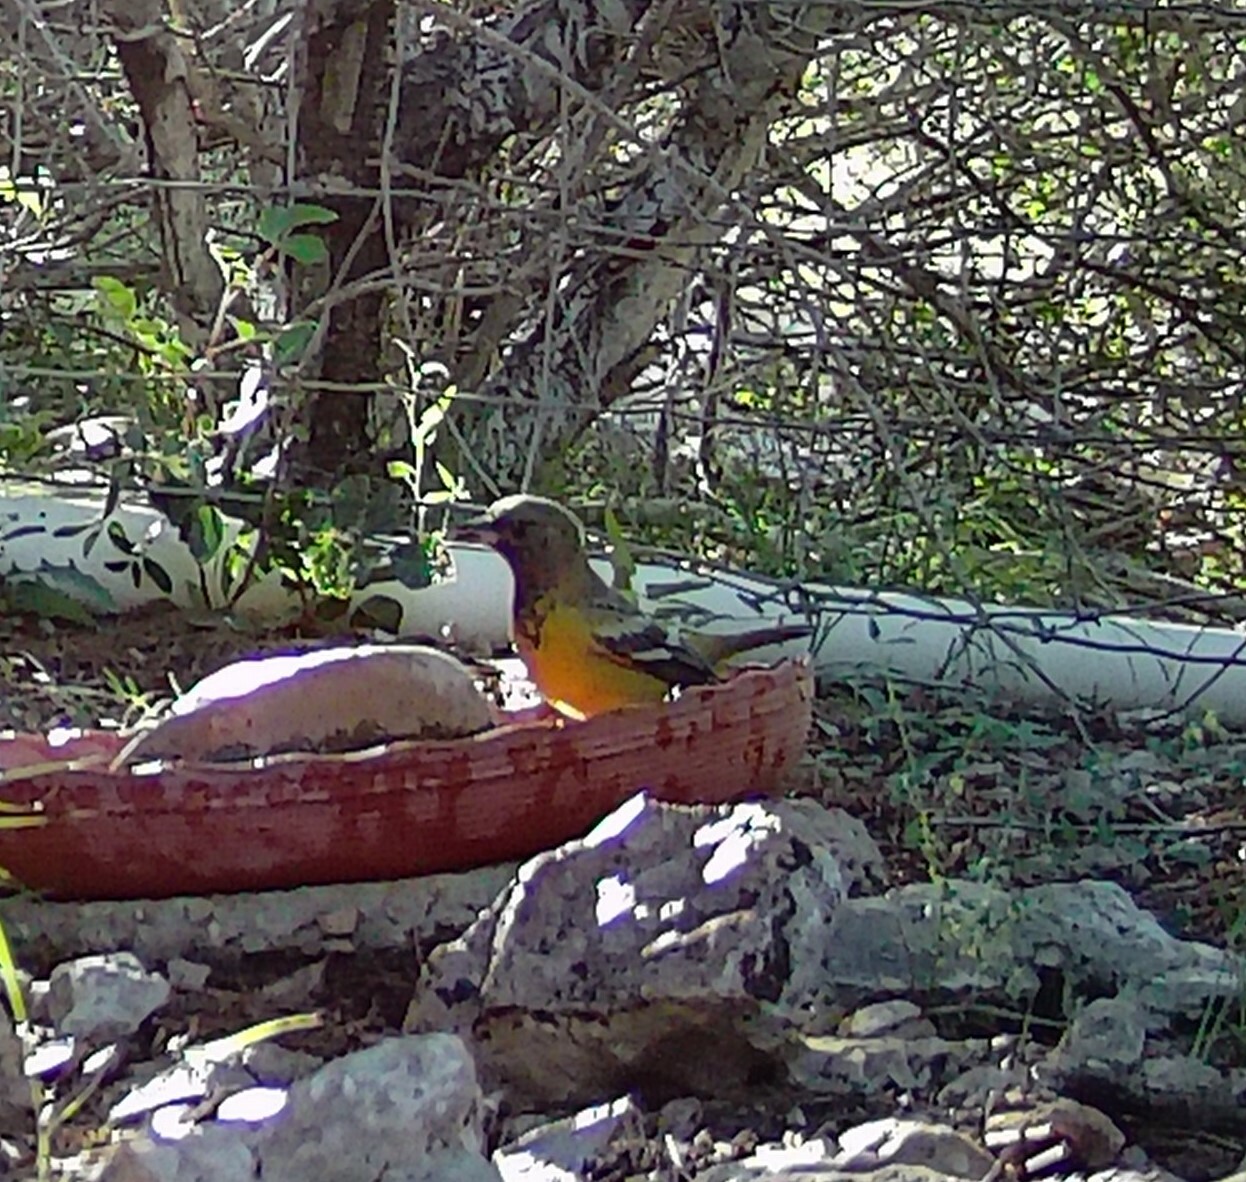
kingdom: Animalia
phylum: Chordata
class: Aves
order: Passeriformes
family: Icteridae
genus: Icterus
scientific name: Icterus parisorum
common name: Scott's oriole
